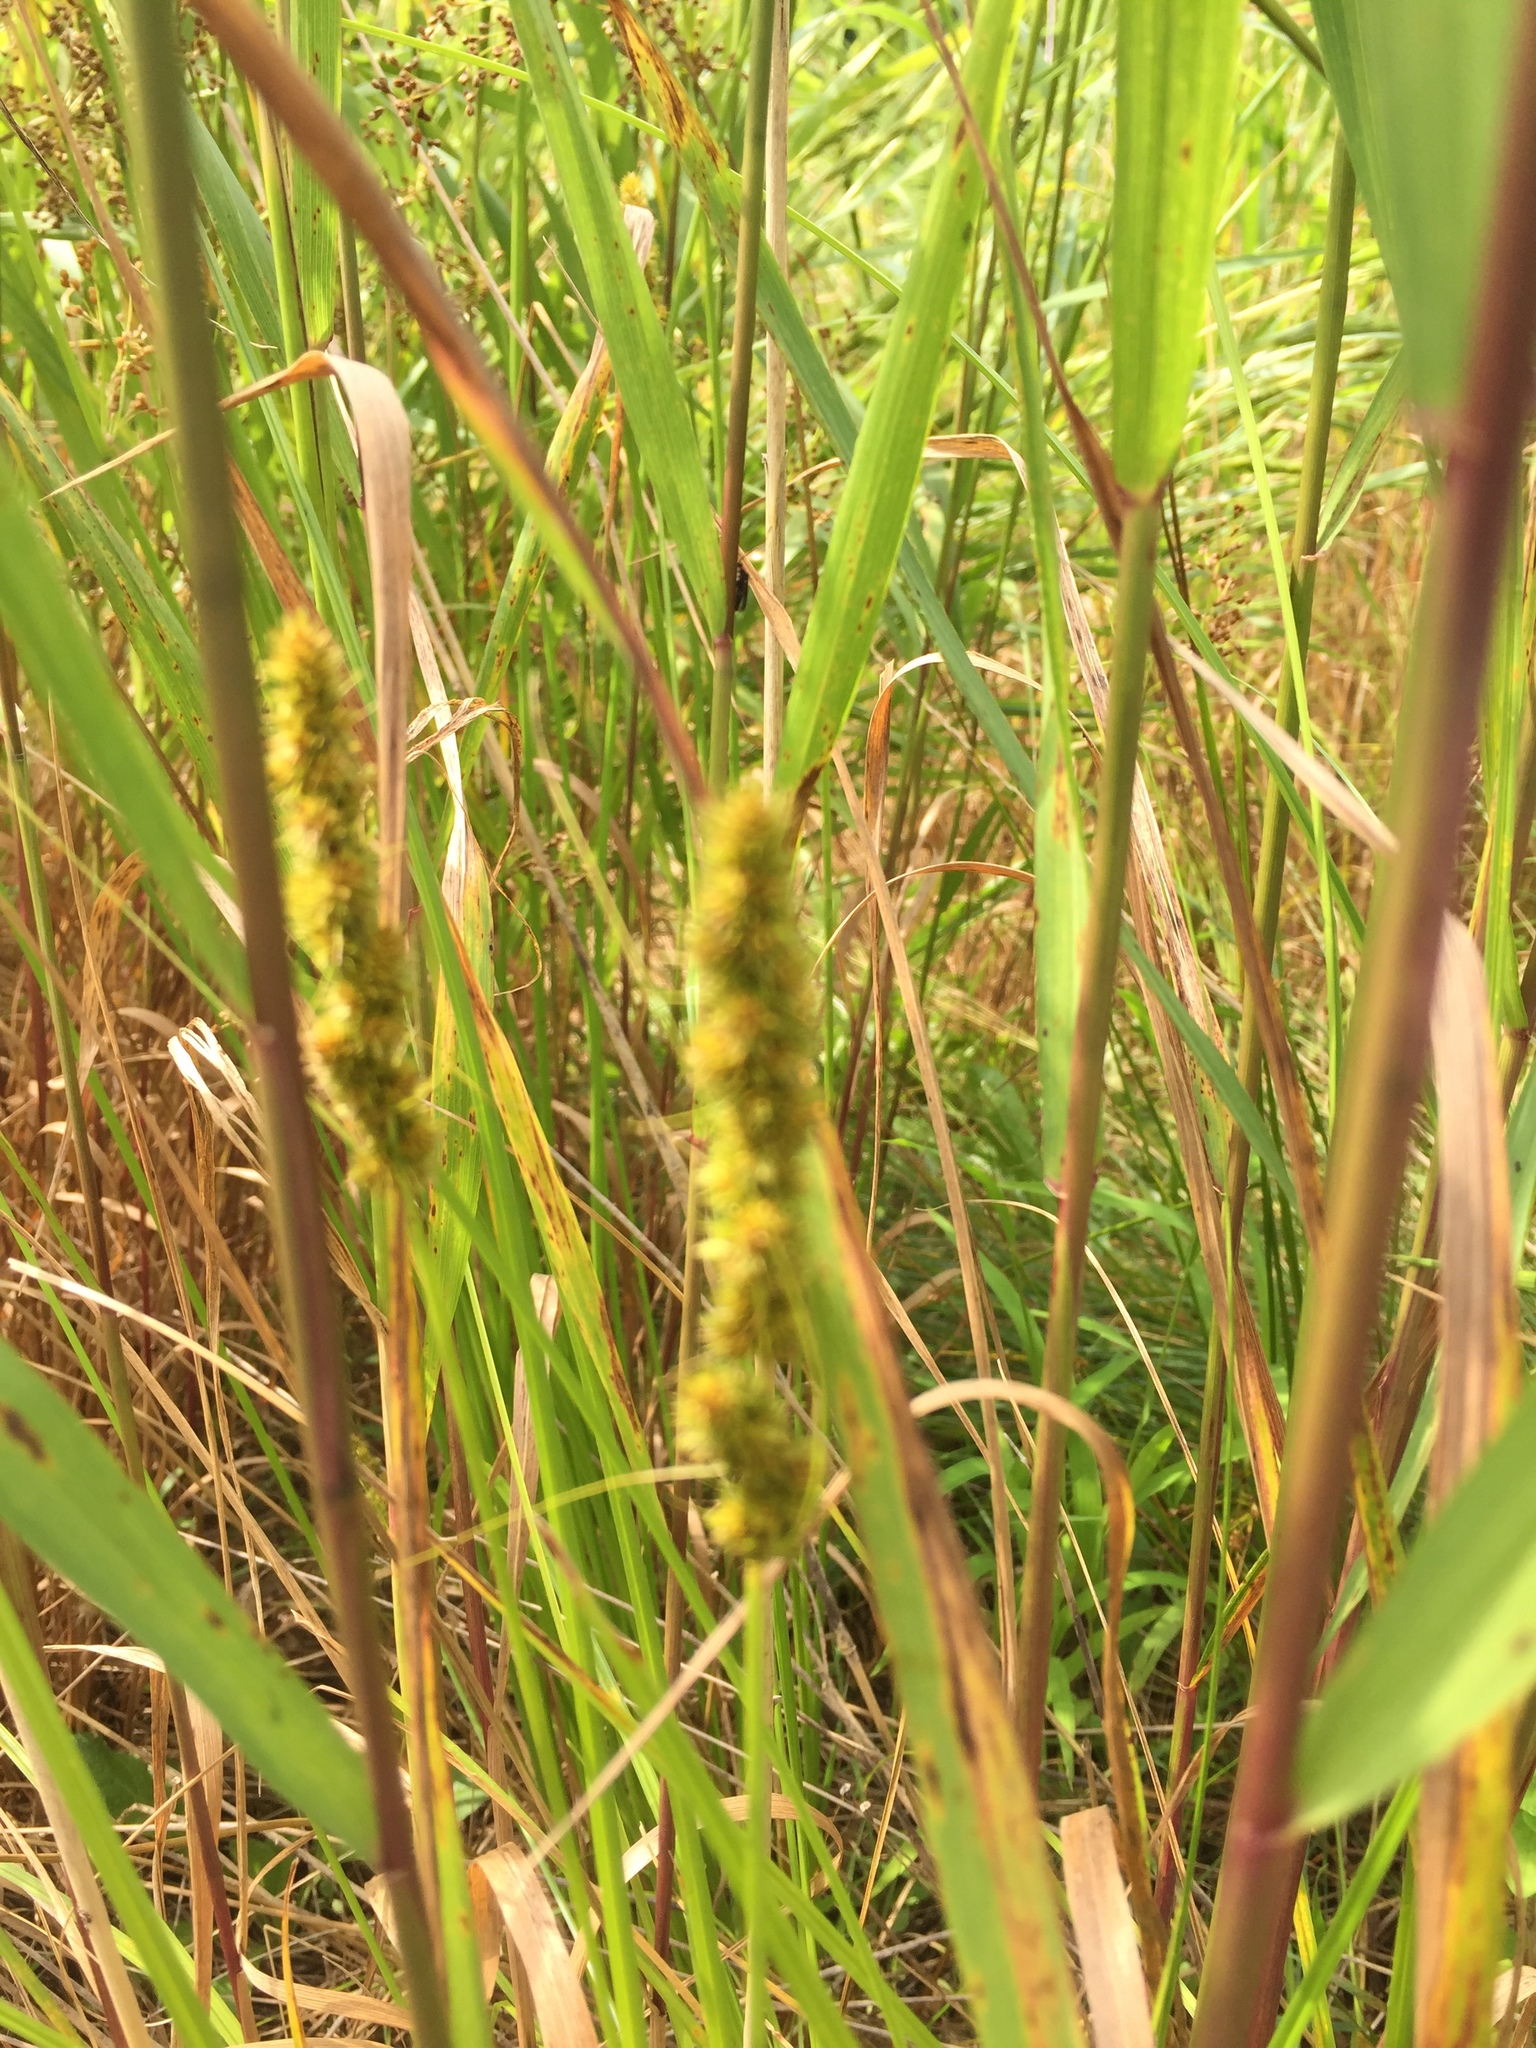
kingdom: Plantae
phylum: Tracheophyta
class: Liliopsida
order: Poales
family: Cyperaceae
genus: Carex
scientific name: Carex vulpinoidea
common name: American fox-sedge
